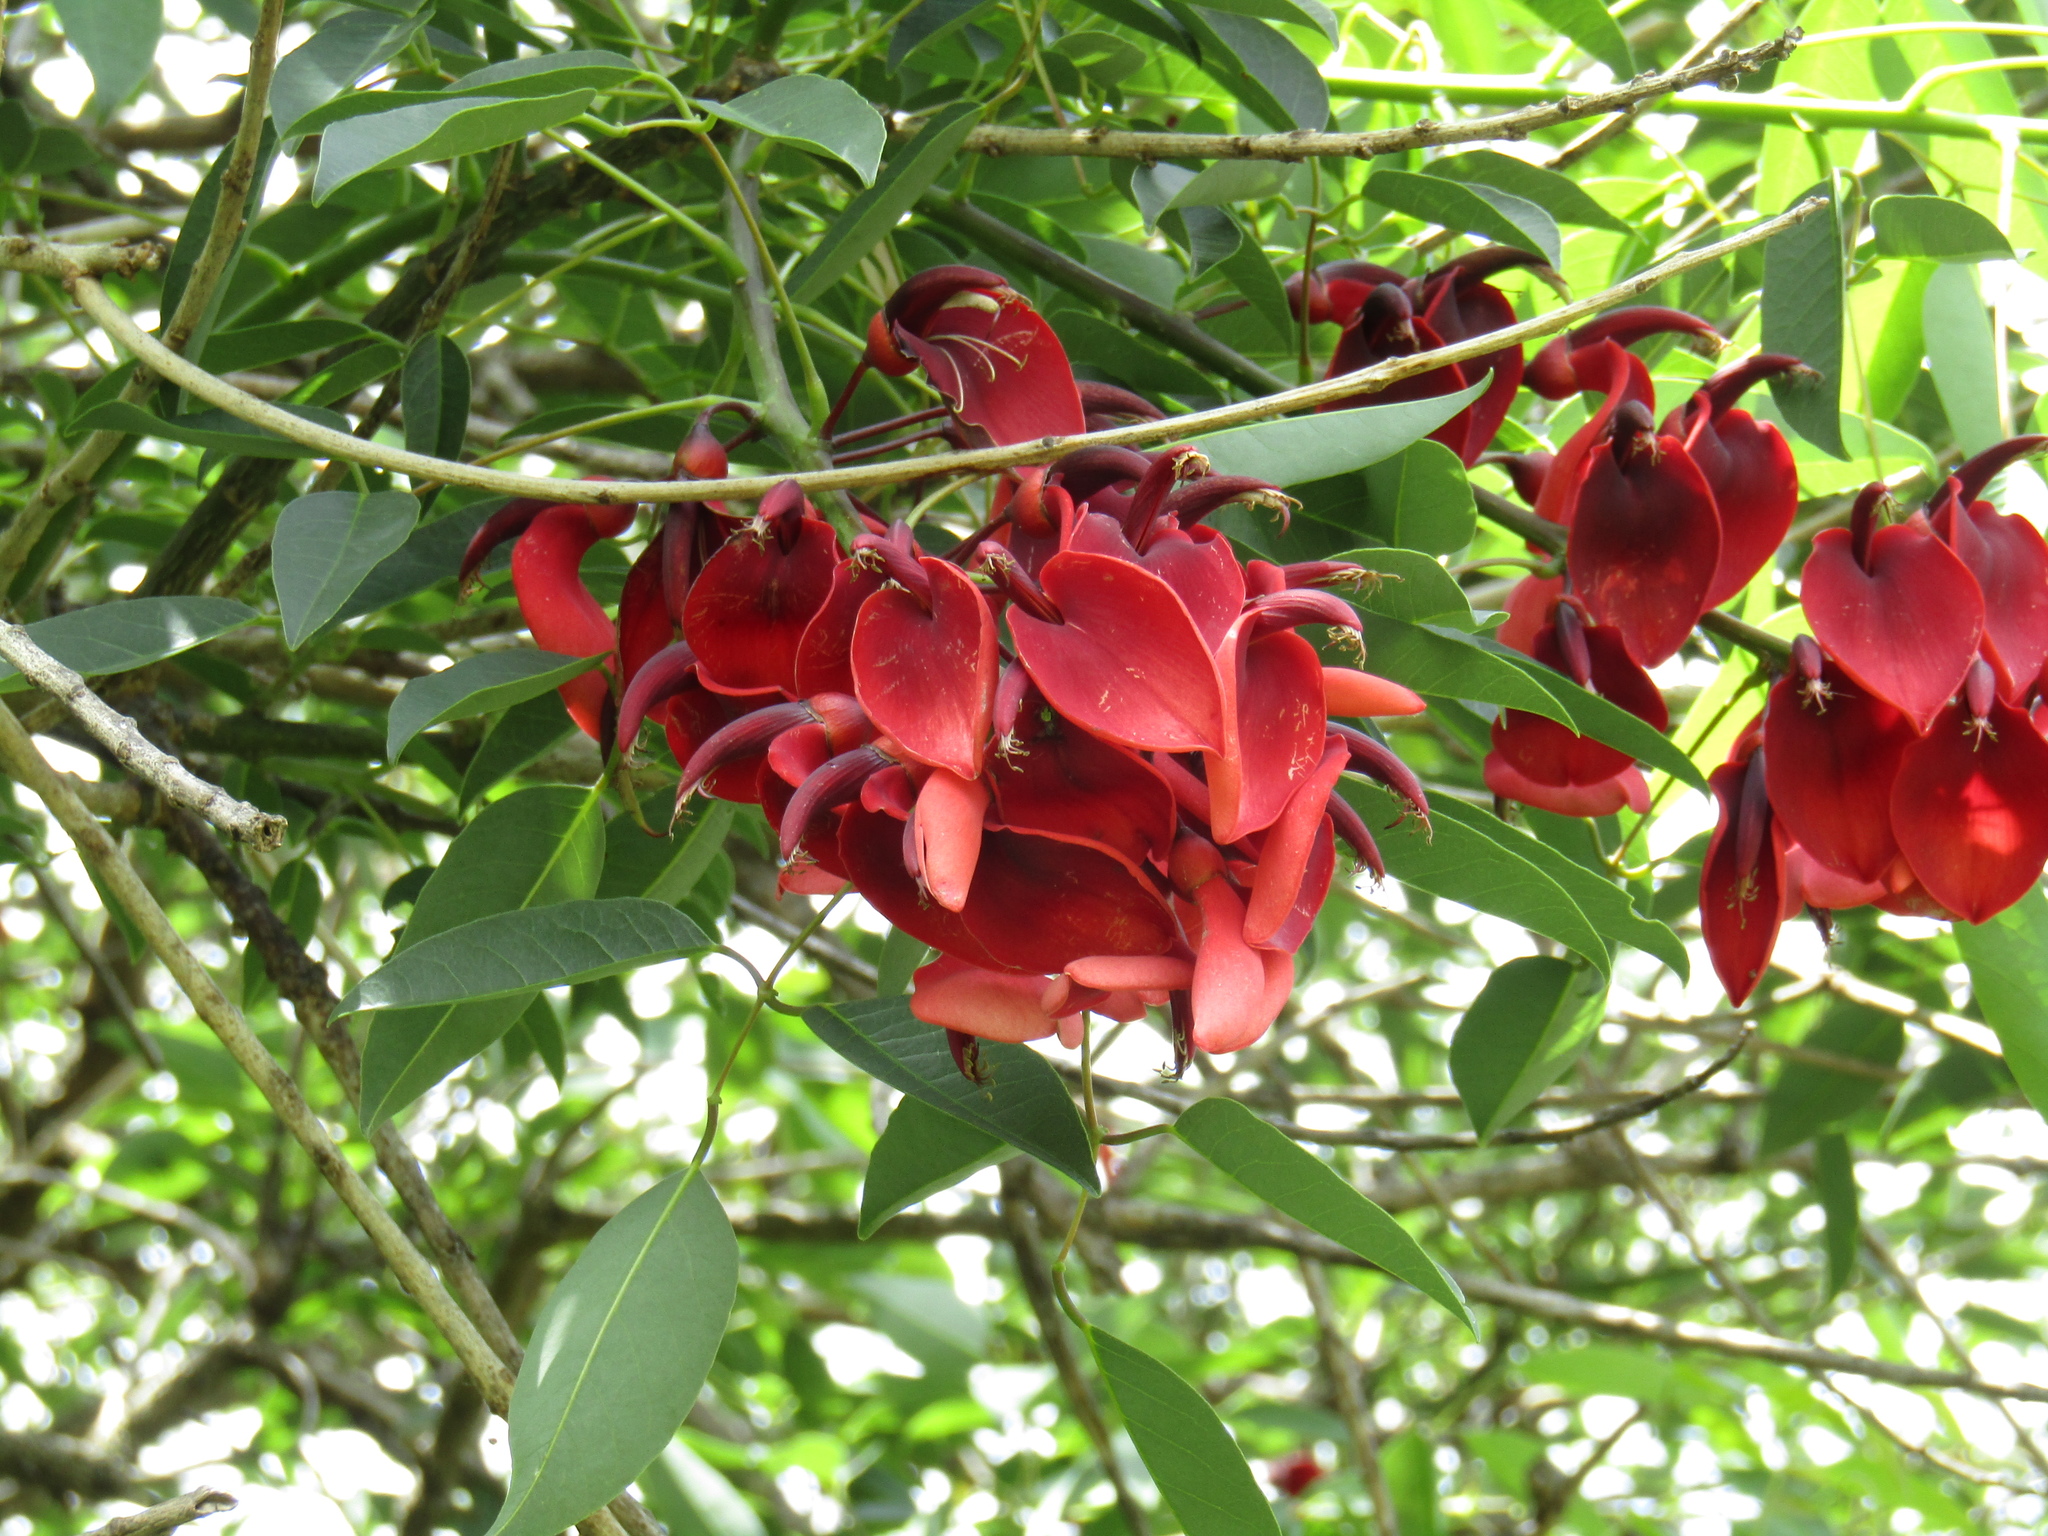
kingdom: Plantae
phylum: Tracheophyta
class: Magnoliopsida
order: Fabales
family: Fabaceae
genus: Erythrina
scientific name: Erythrina crista-galli
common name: Cockspur coral tree
